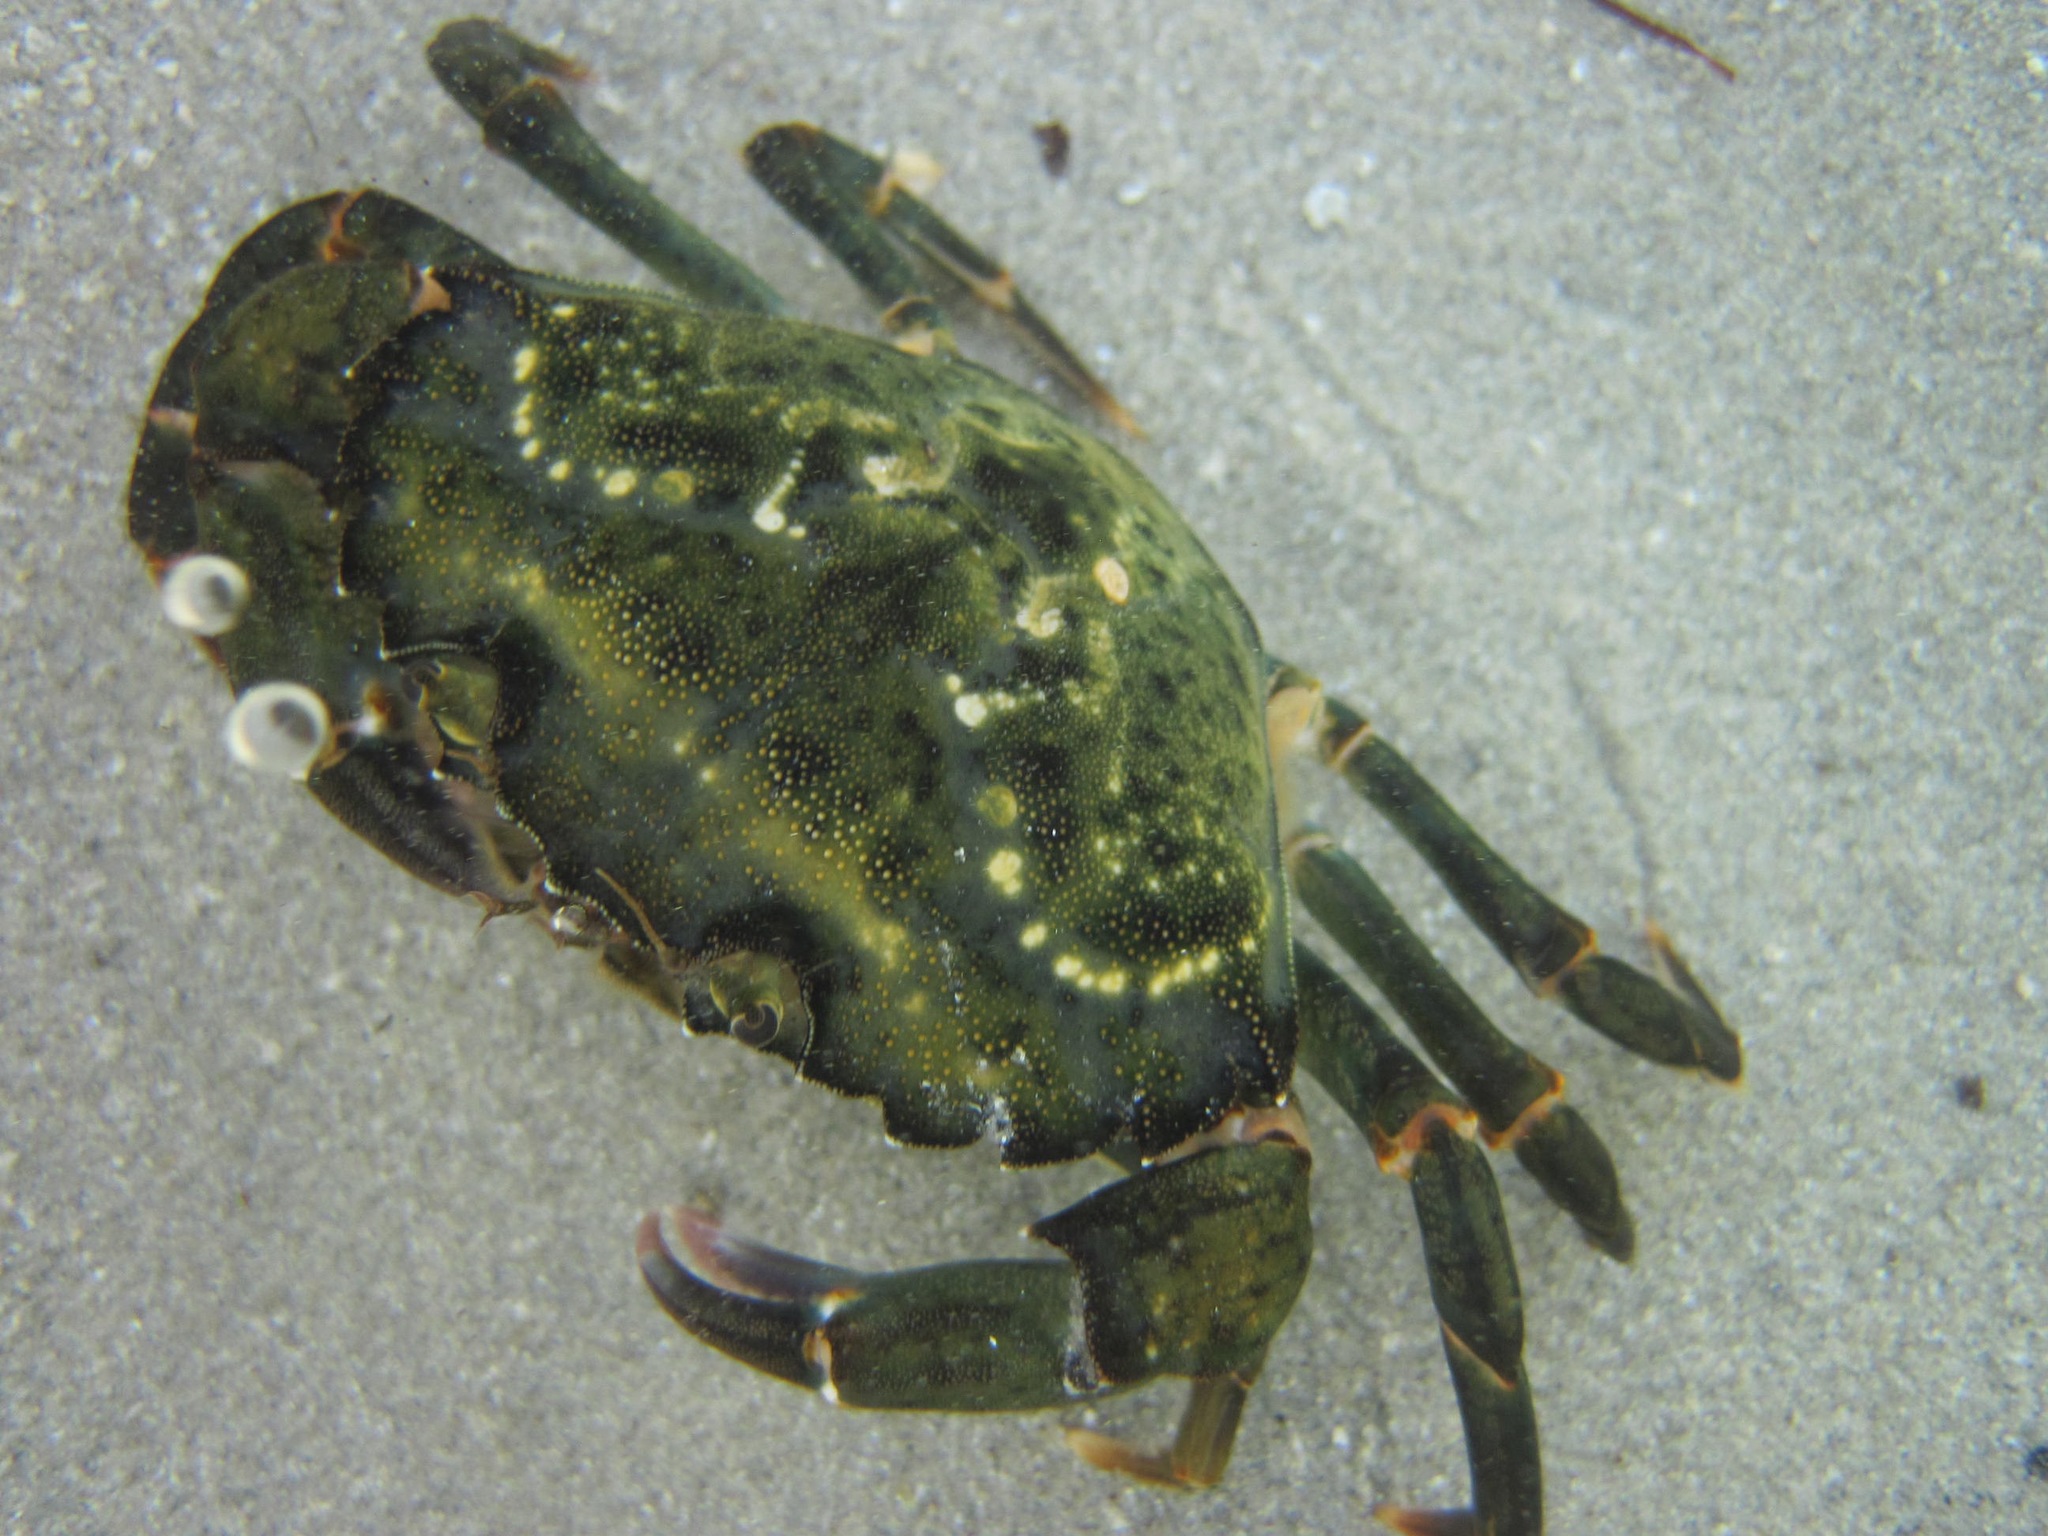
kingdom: Animalia
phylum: Arthropoda
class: Malacostraca
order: Decapoda
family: Carcinidae
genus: Carcinus
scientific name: Carcinus maenas
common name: European green crab
